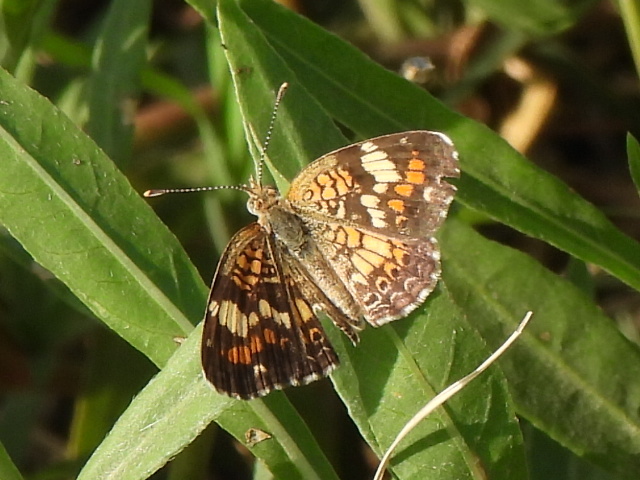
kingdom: Animalia
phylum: Arthropoda
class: Insecta
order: Lepidoptera
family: Nymphalidae
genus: Phyciodes
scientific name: Phyciodes phaon
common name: Phaon crescent
